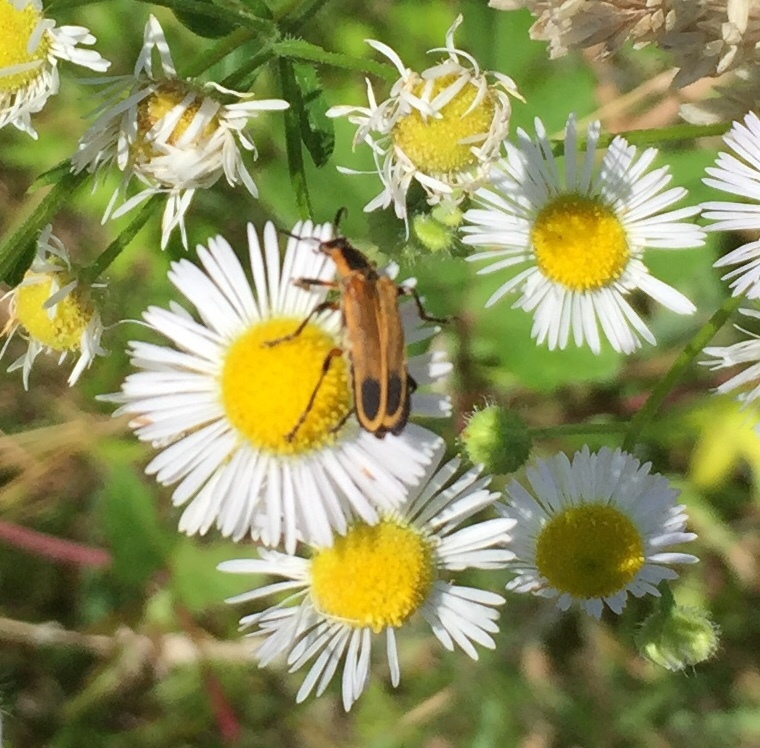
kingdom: Animalia
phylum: Arthropoda
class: Insecta
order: Coleoptera
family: Cantharidae
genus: Chauliognathus
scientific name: Chauliognathus marginatus
